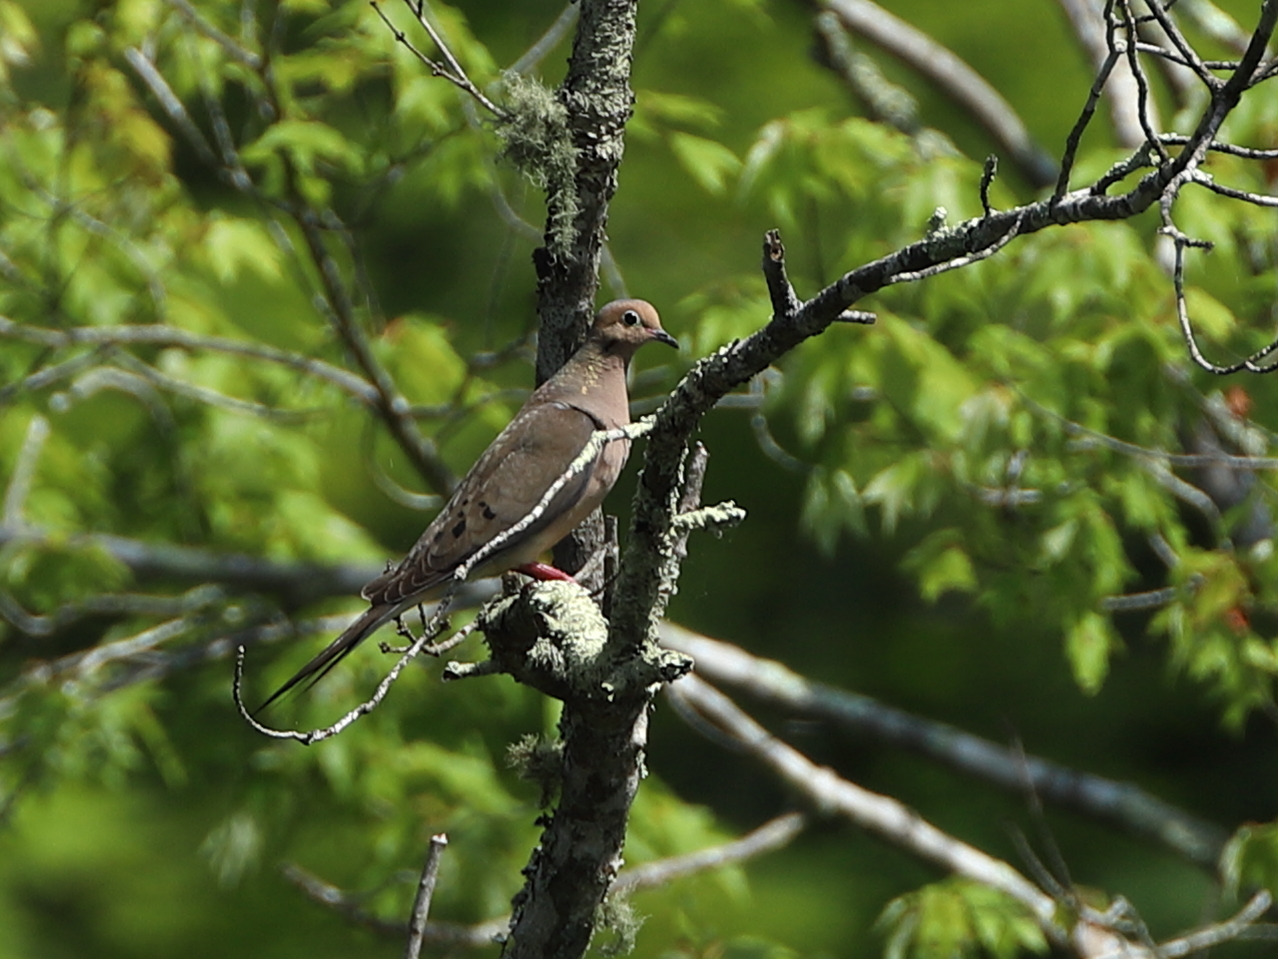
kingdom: Animalia
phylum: Chordata
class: Aves
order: Columbiformes
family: Columbidae
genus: Zenaida
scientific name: Zenaida macroura
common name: Mourning dove
